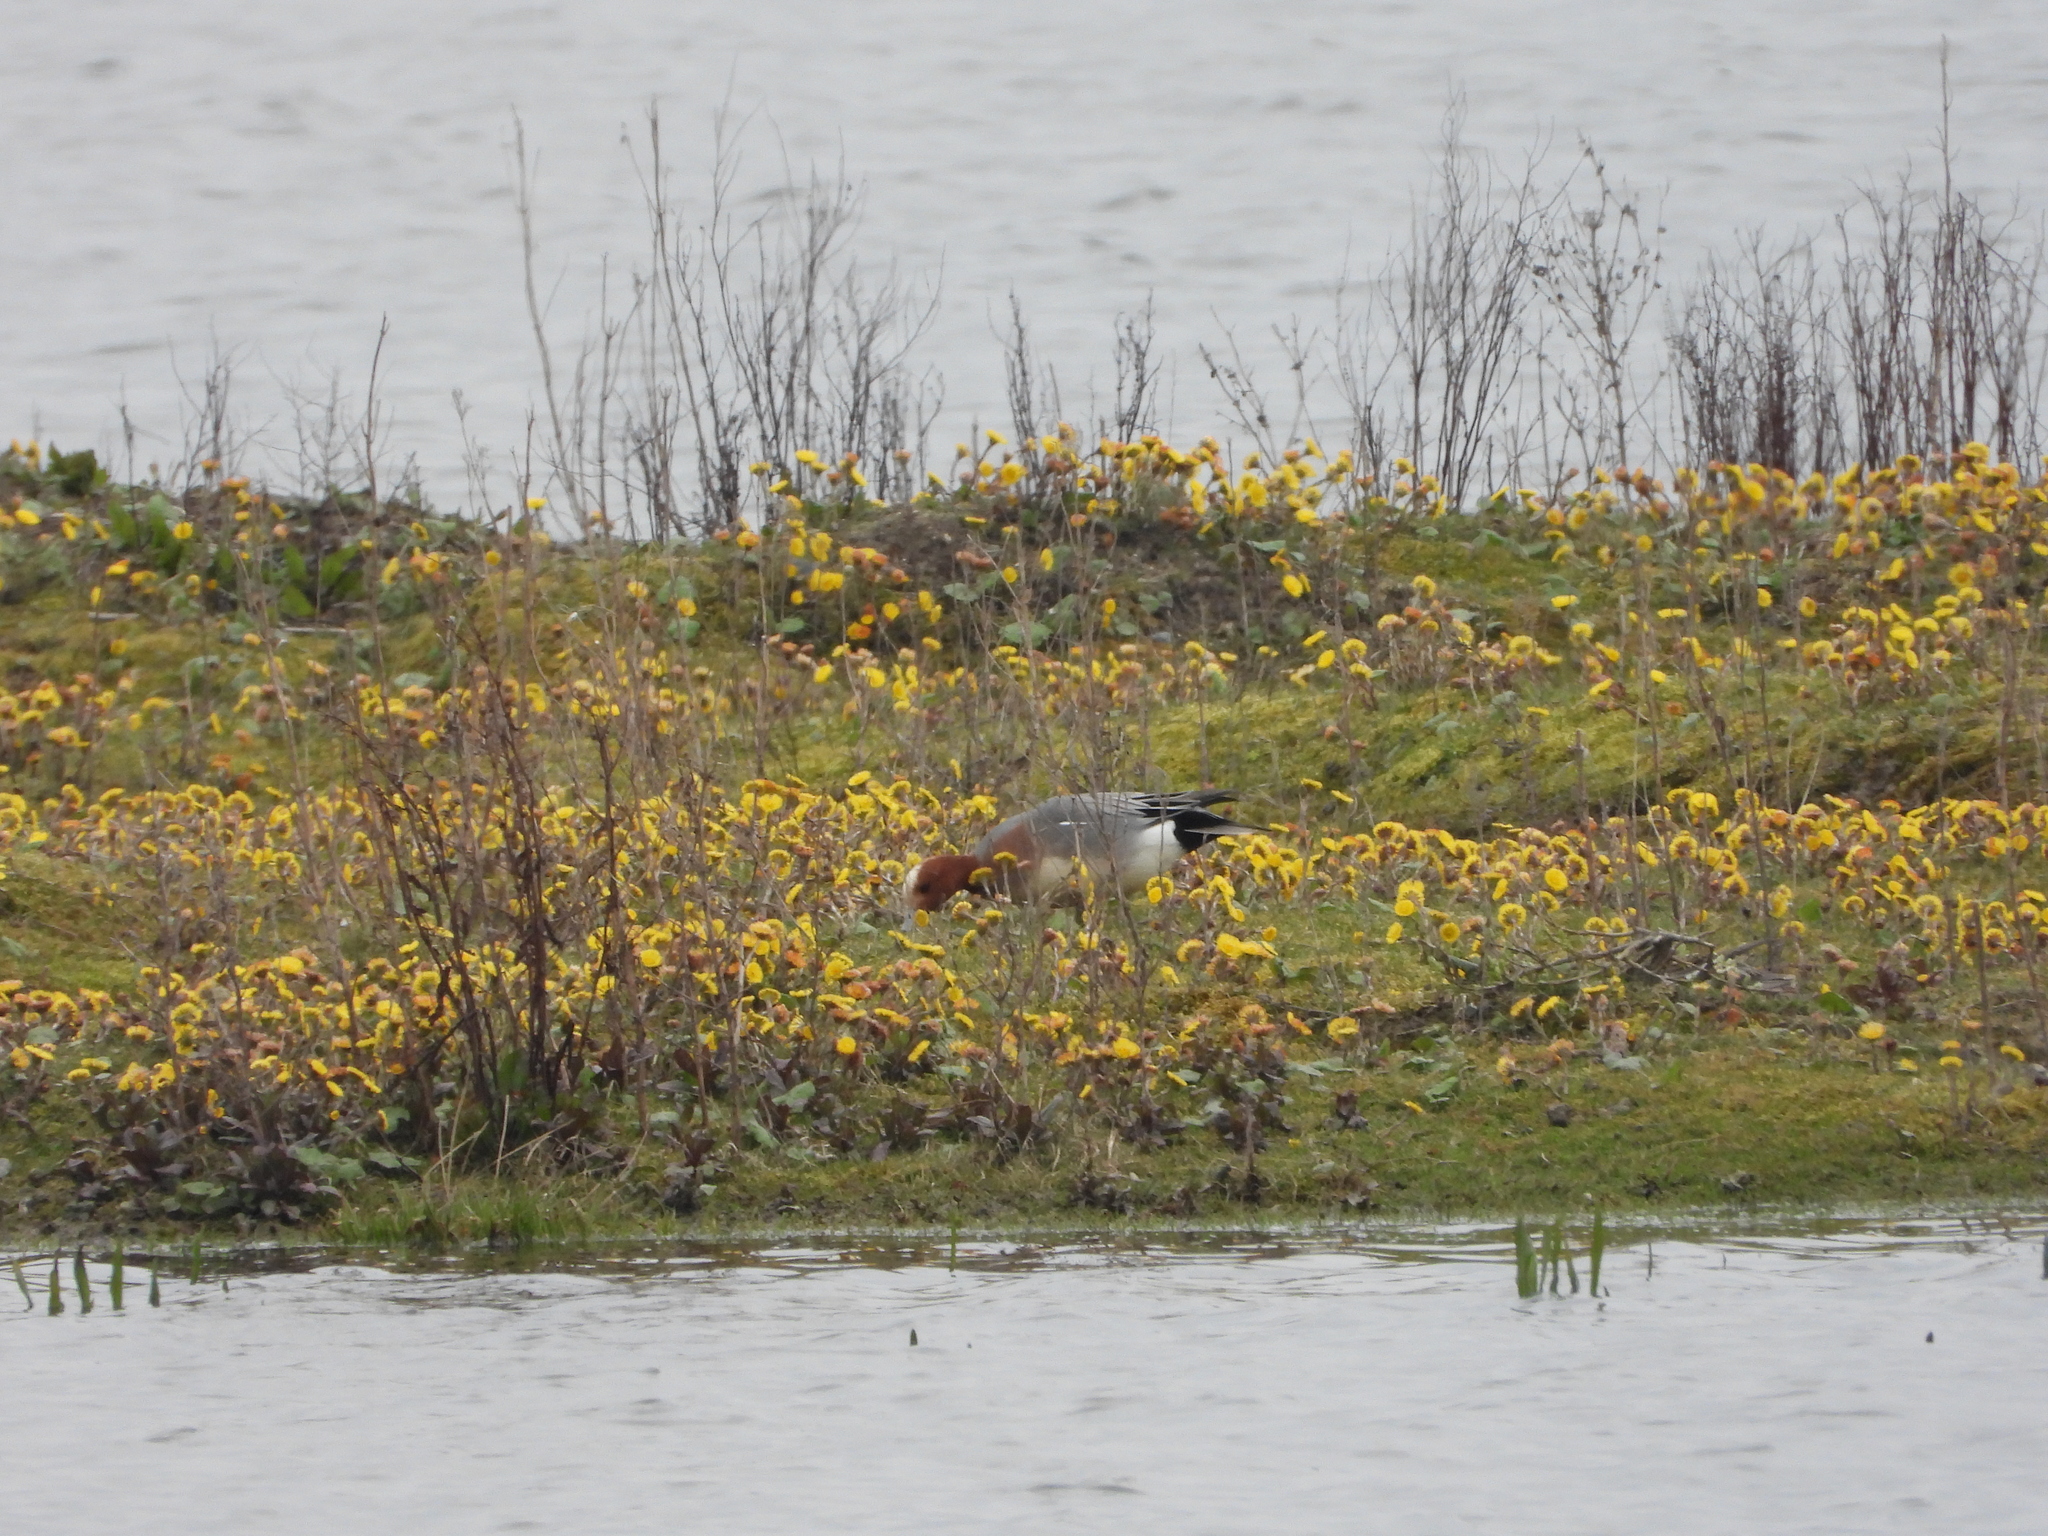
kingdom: Animalia
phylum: Chordata
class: Aves
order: Anseriformes
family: Anatidae
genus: Mareca
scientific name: Mareca penelope
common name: Eurasian wigeon
